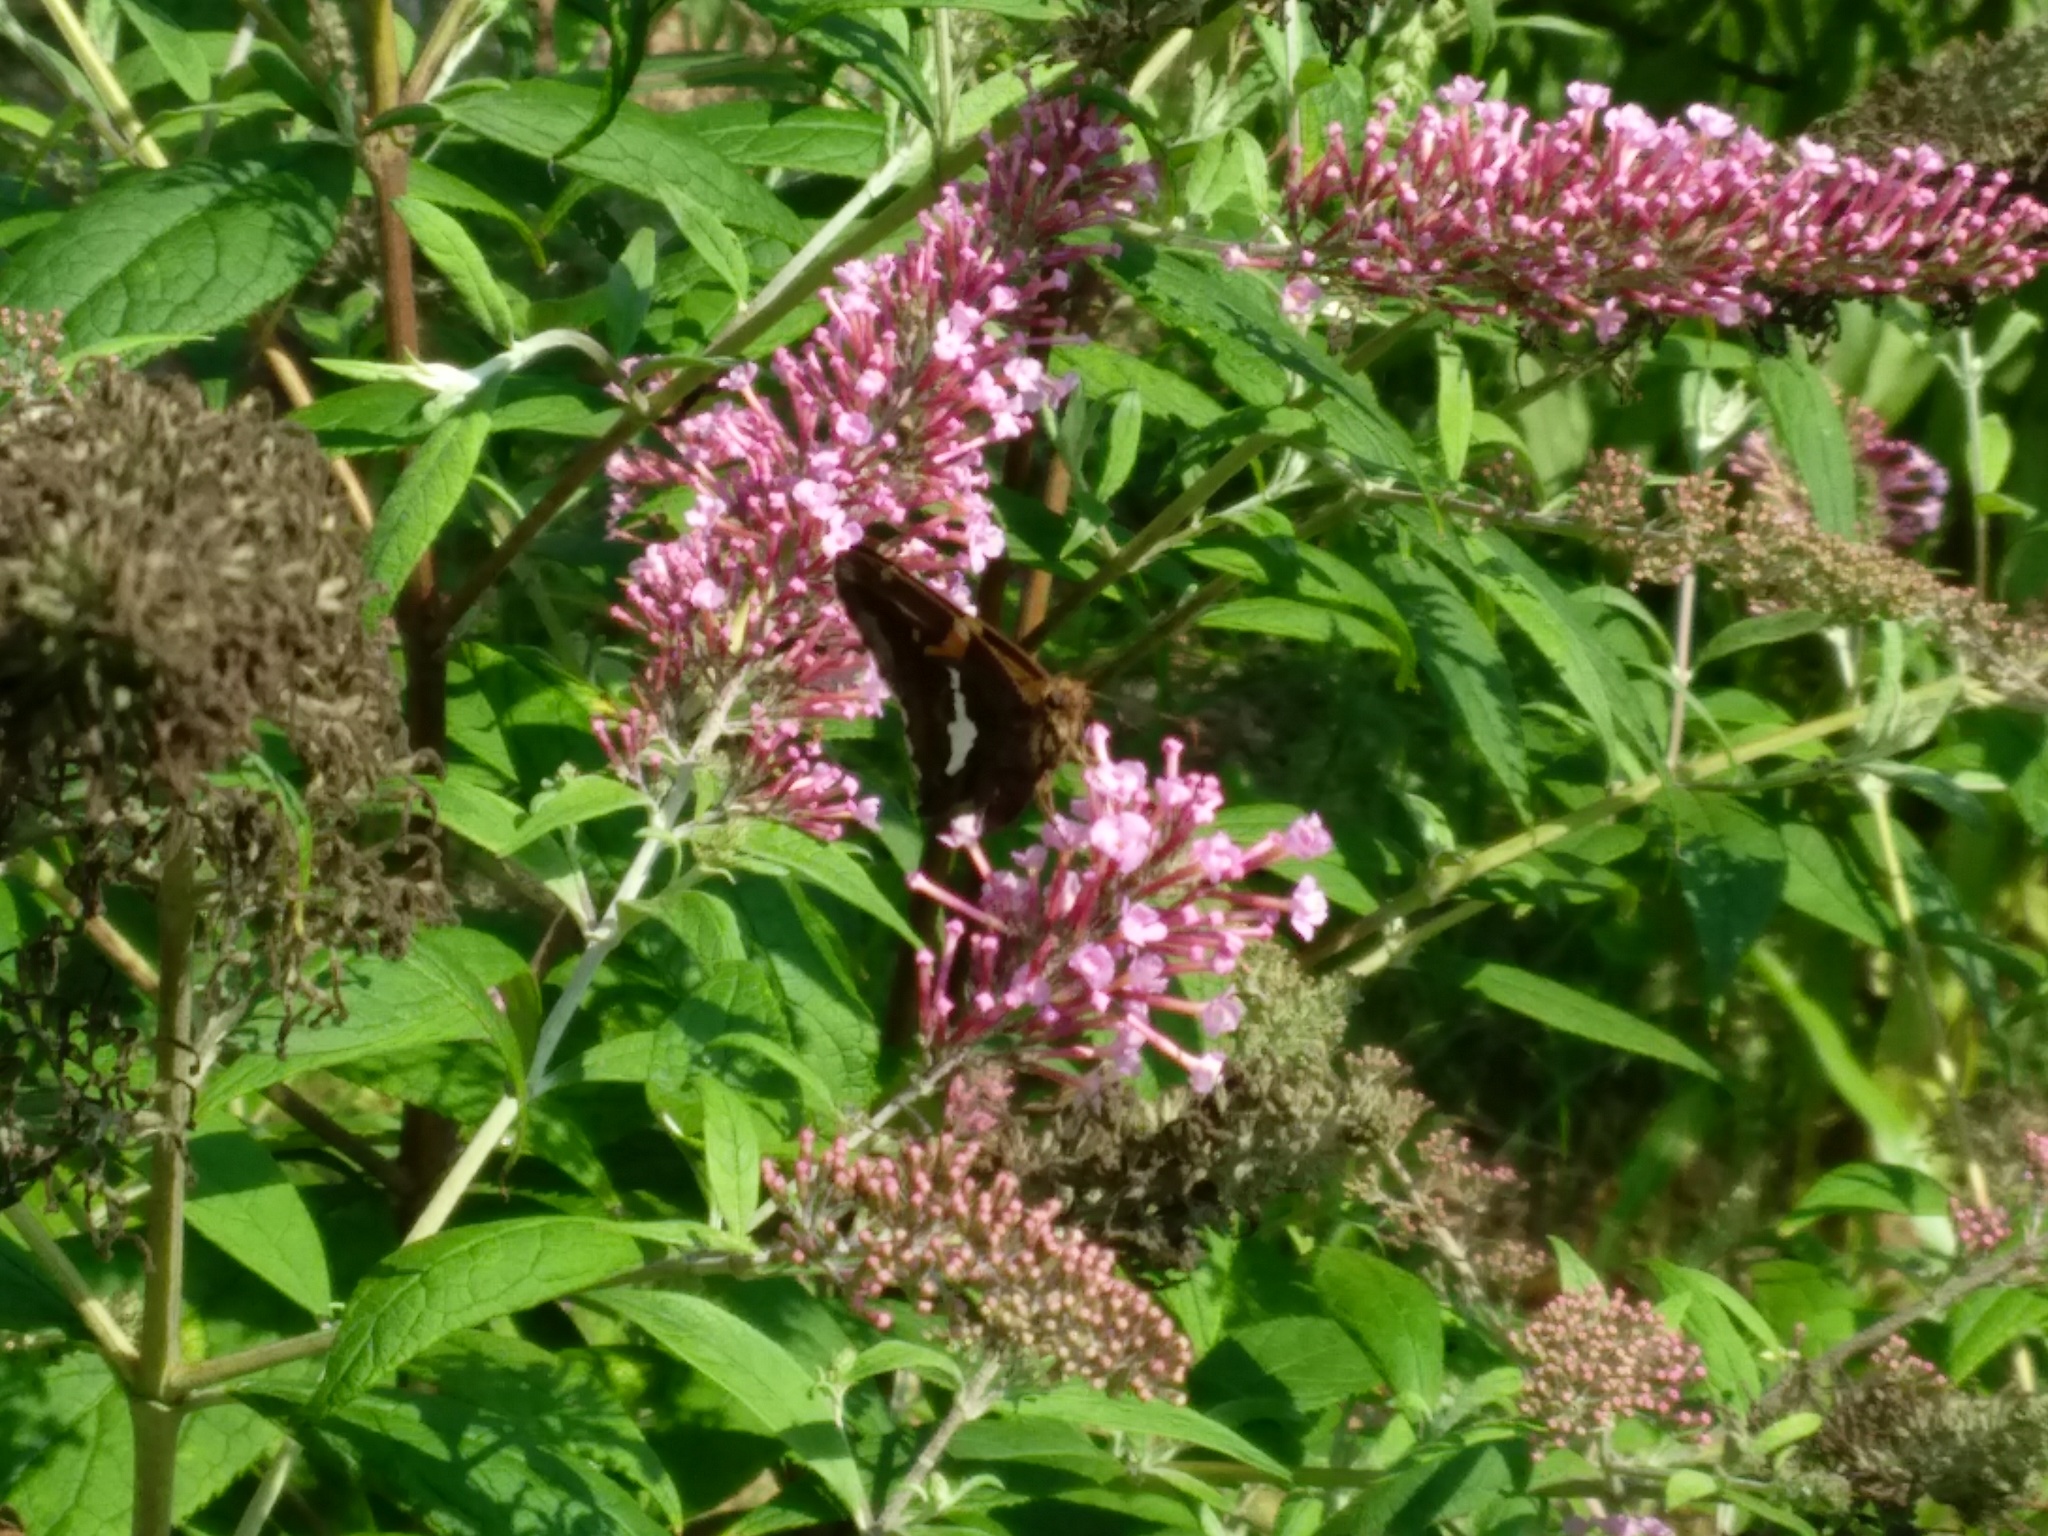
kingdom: Animalia
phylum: Arthropoda
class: Insecta
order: Lepidoptera
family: Hesperiidae
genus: Epargyreus
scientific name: Epargyreus clarus
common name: Silver-spotted skipper
